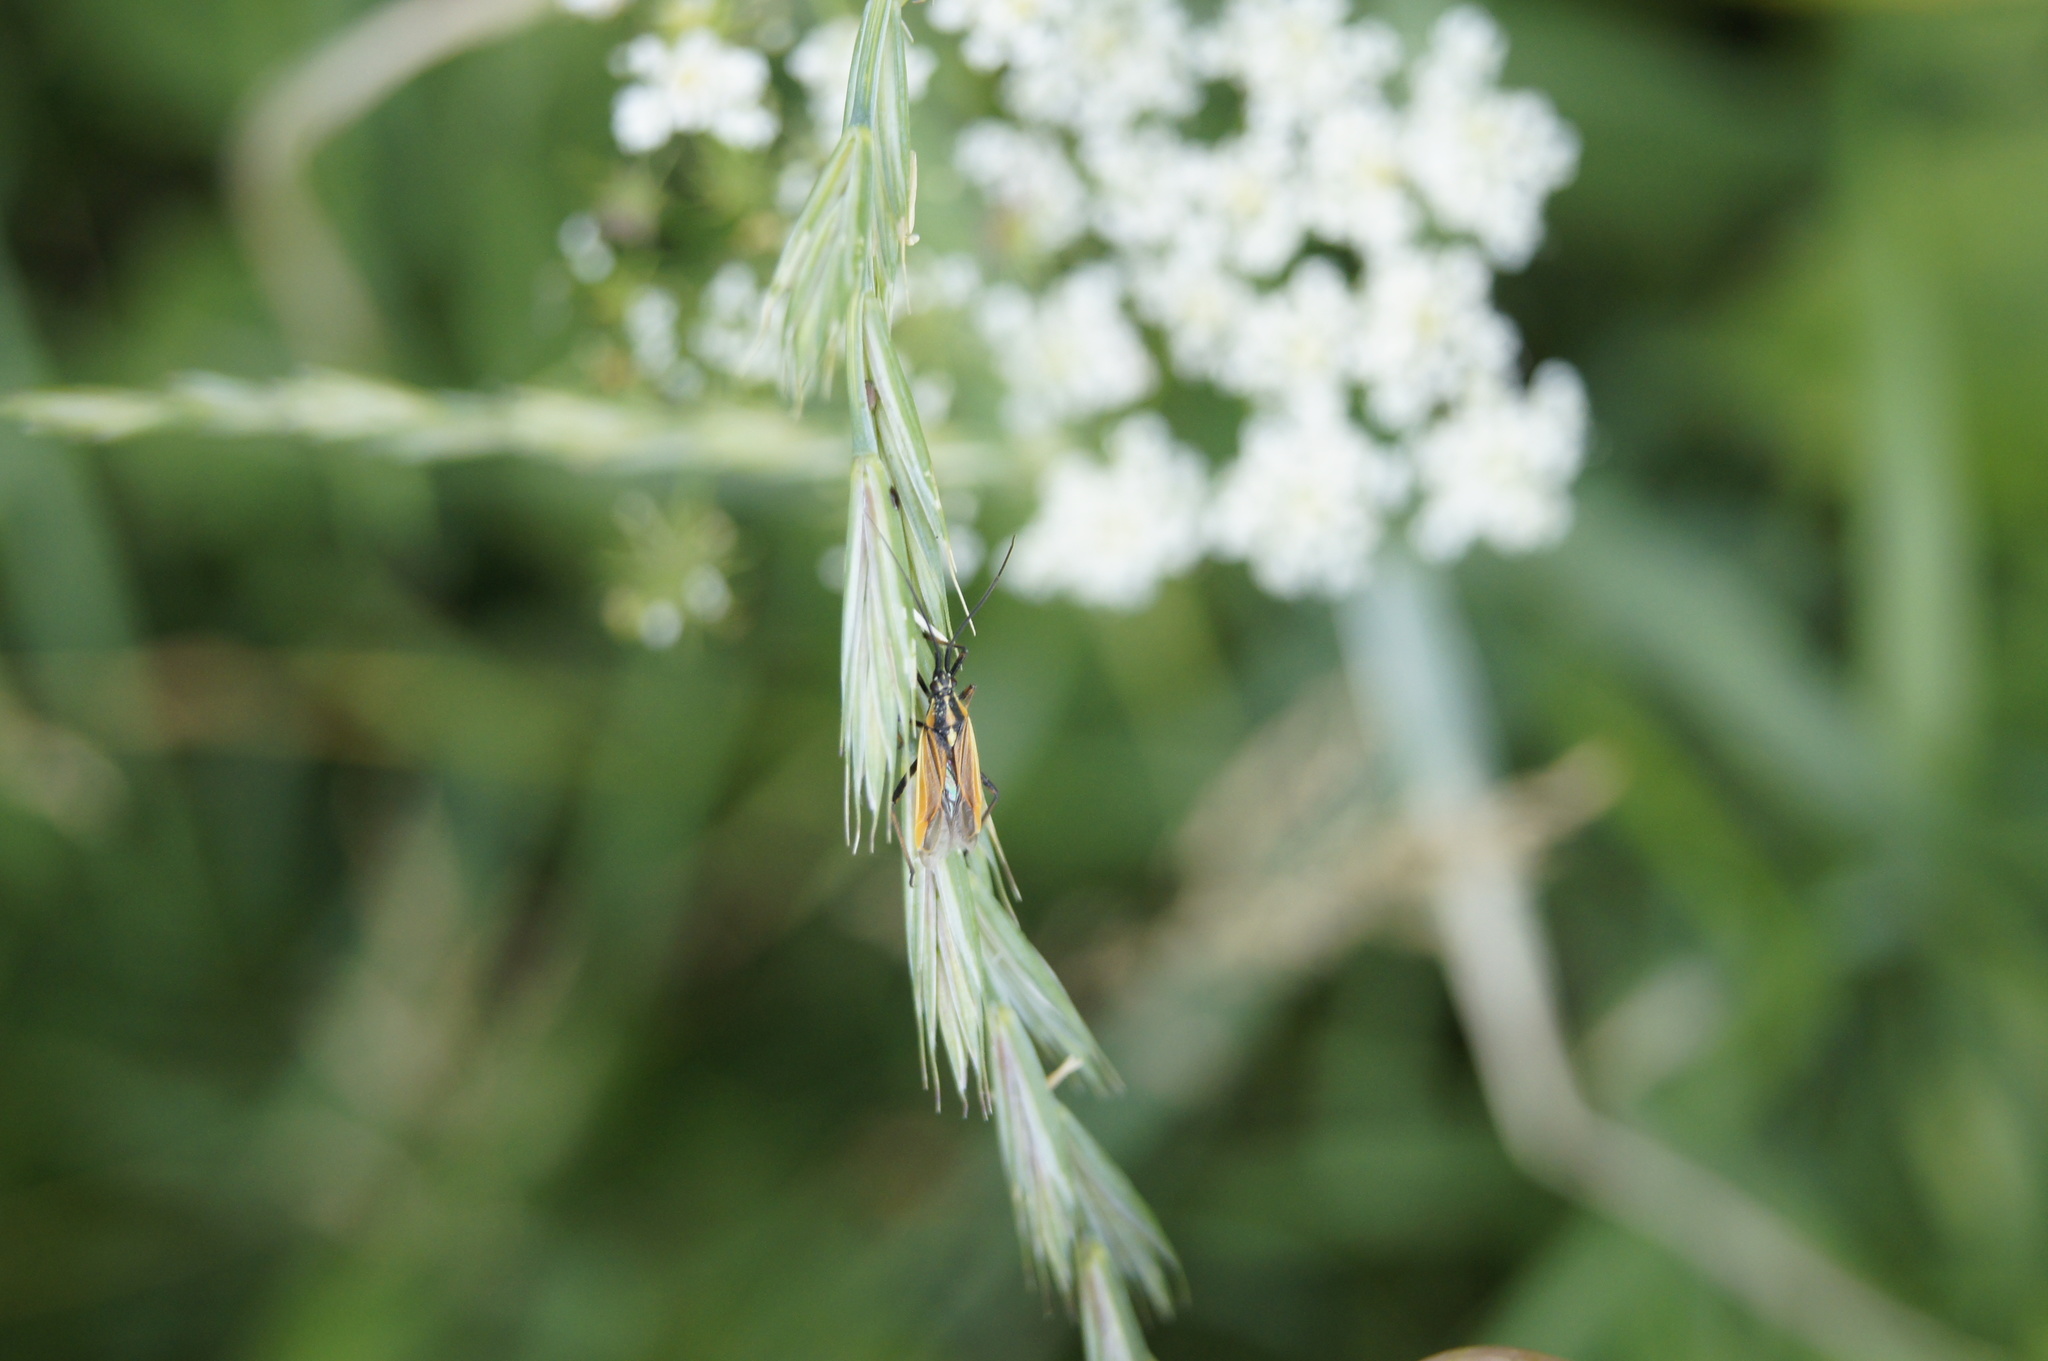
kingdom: Animalia
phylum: Arthropoda
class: Insecta
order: Hemiptera
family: Miridae
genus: Leptopterna
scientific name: Leptopterna dolabrata
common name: Meadow plant bug
